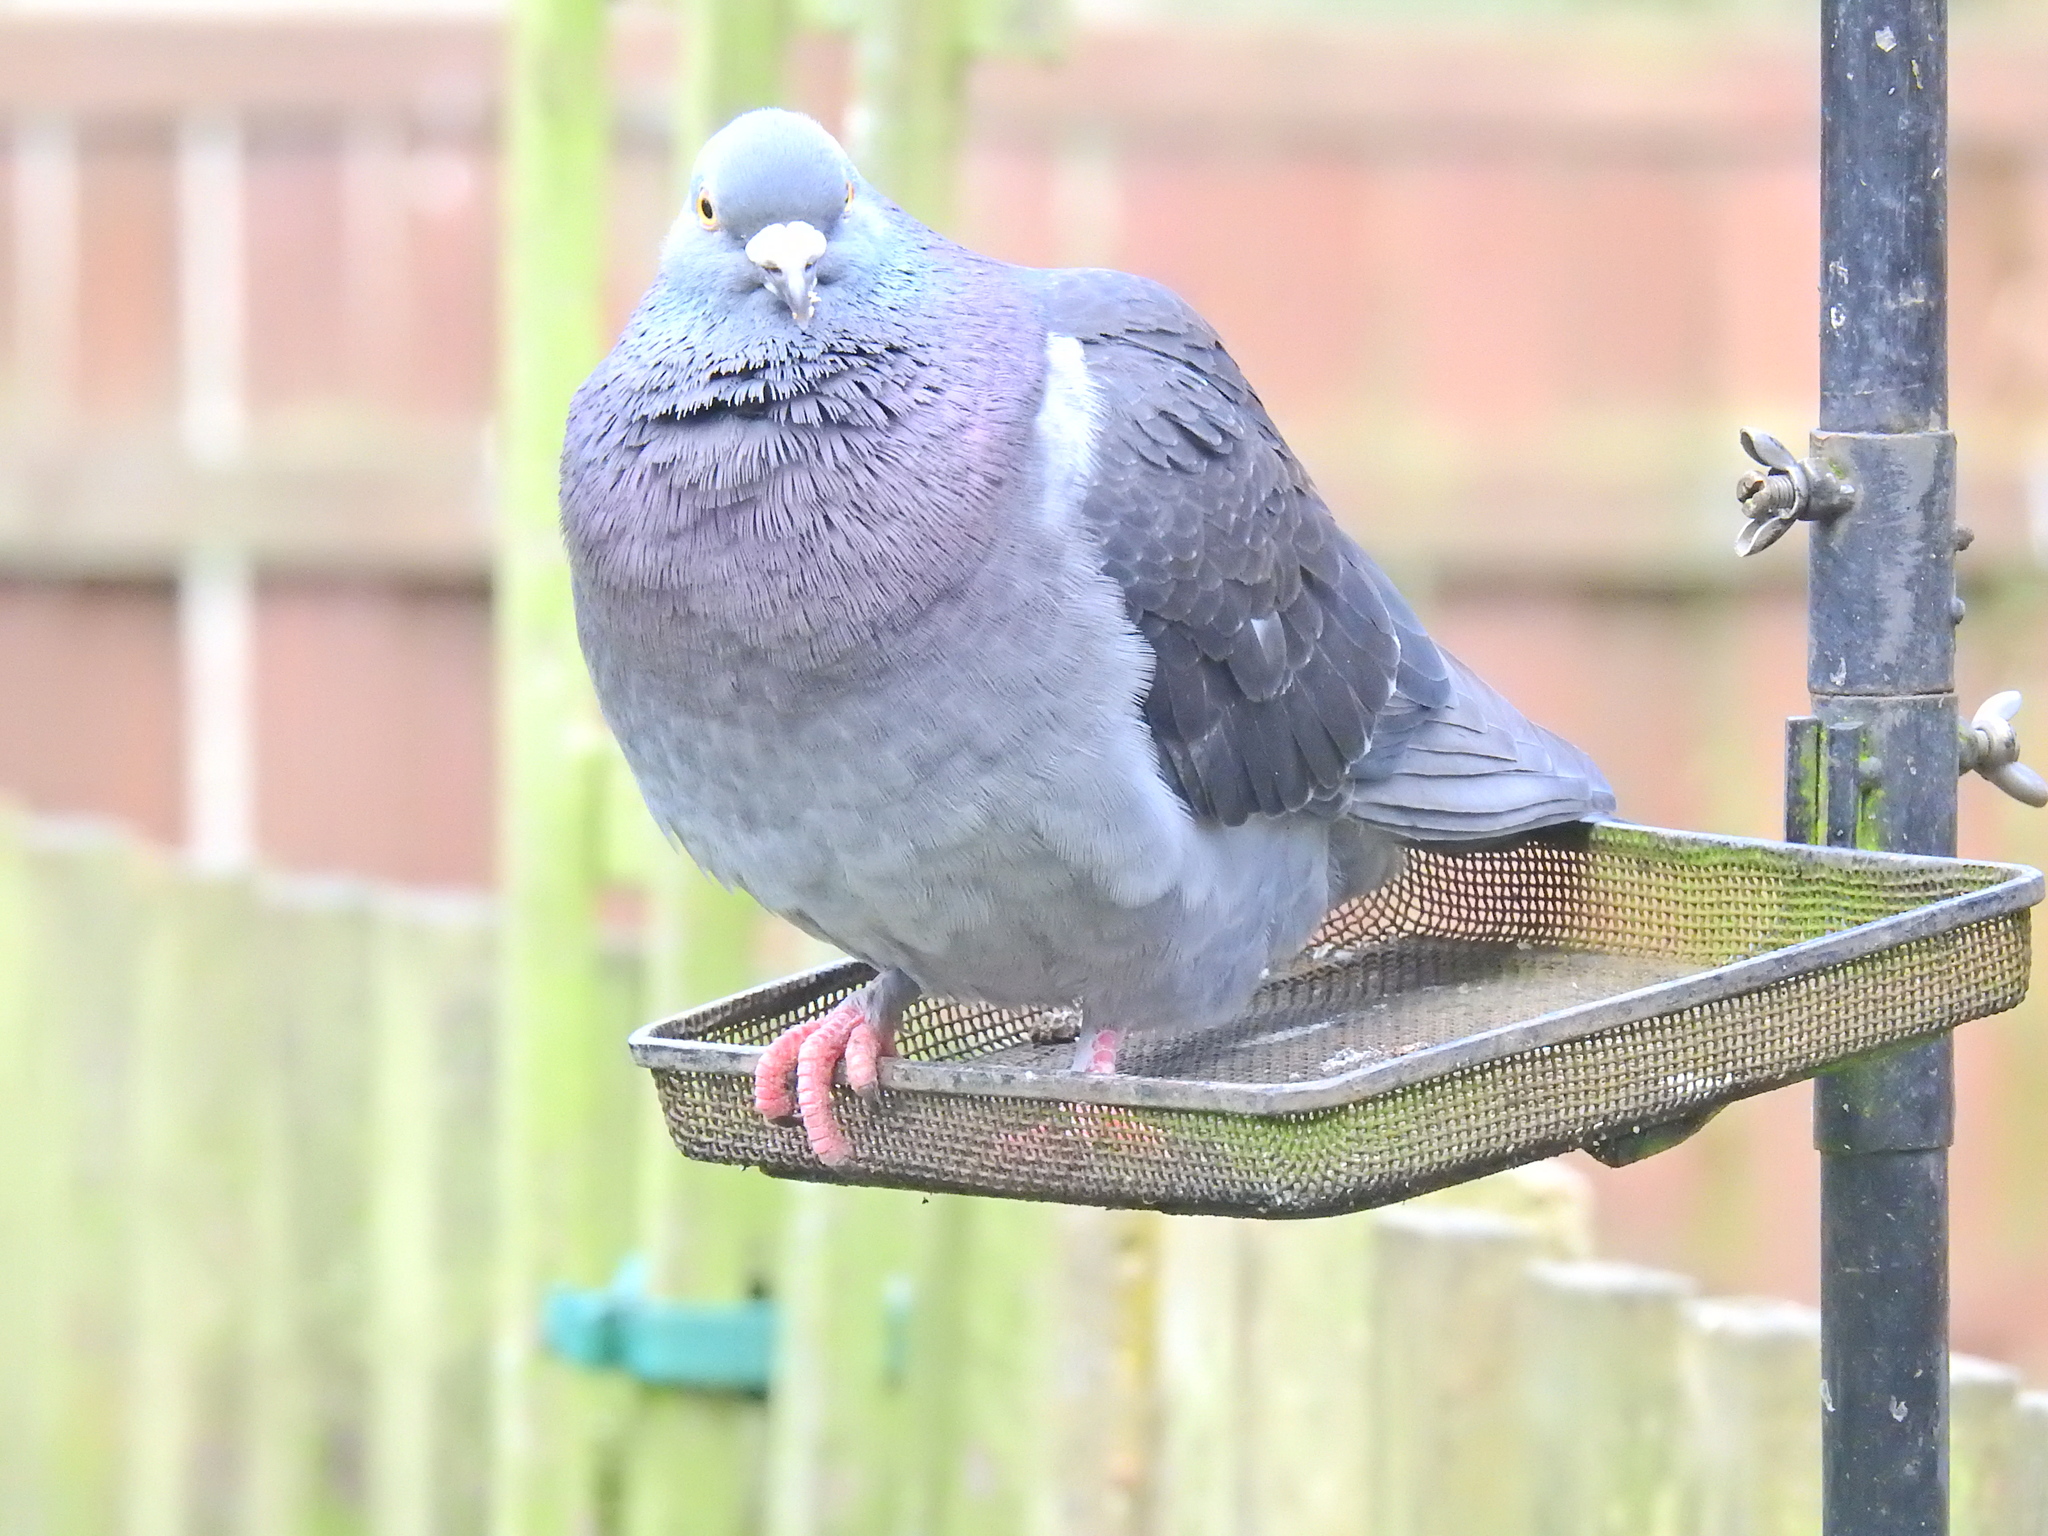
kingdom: Animalia
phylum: Chordata
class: Aves
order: Columbiformes
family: Columbidae
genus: Columba
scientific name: Columba livia
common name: Rock pigeon
